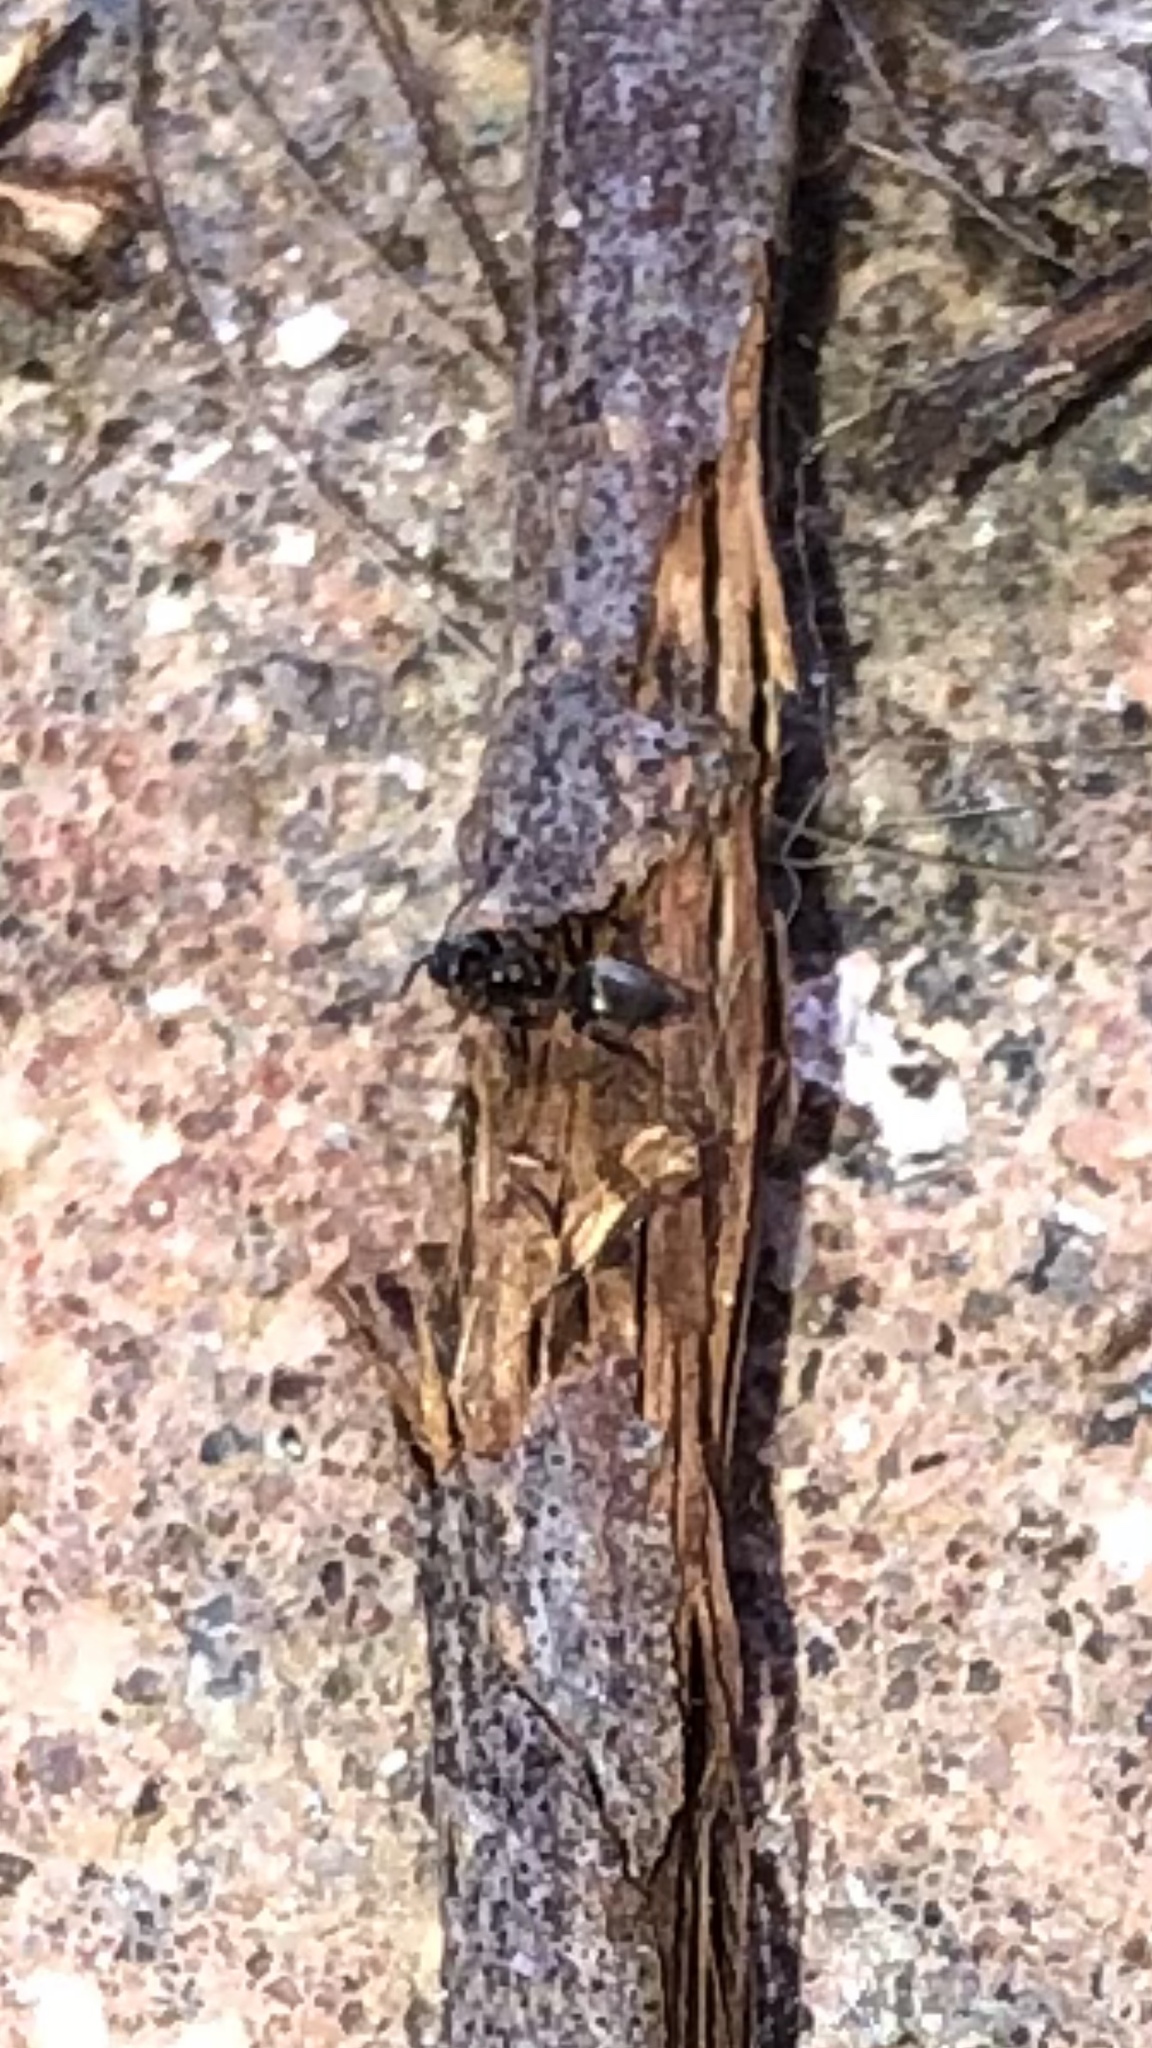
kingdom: Animalia
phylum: Arthropoda
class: Insecta
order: Hymenoptera
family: Formicidae
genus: Tapinoma
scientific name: Tapinoma sessile
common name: Odorous house ant
